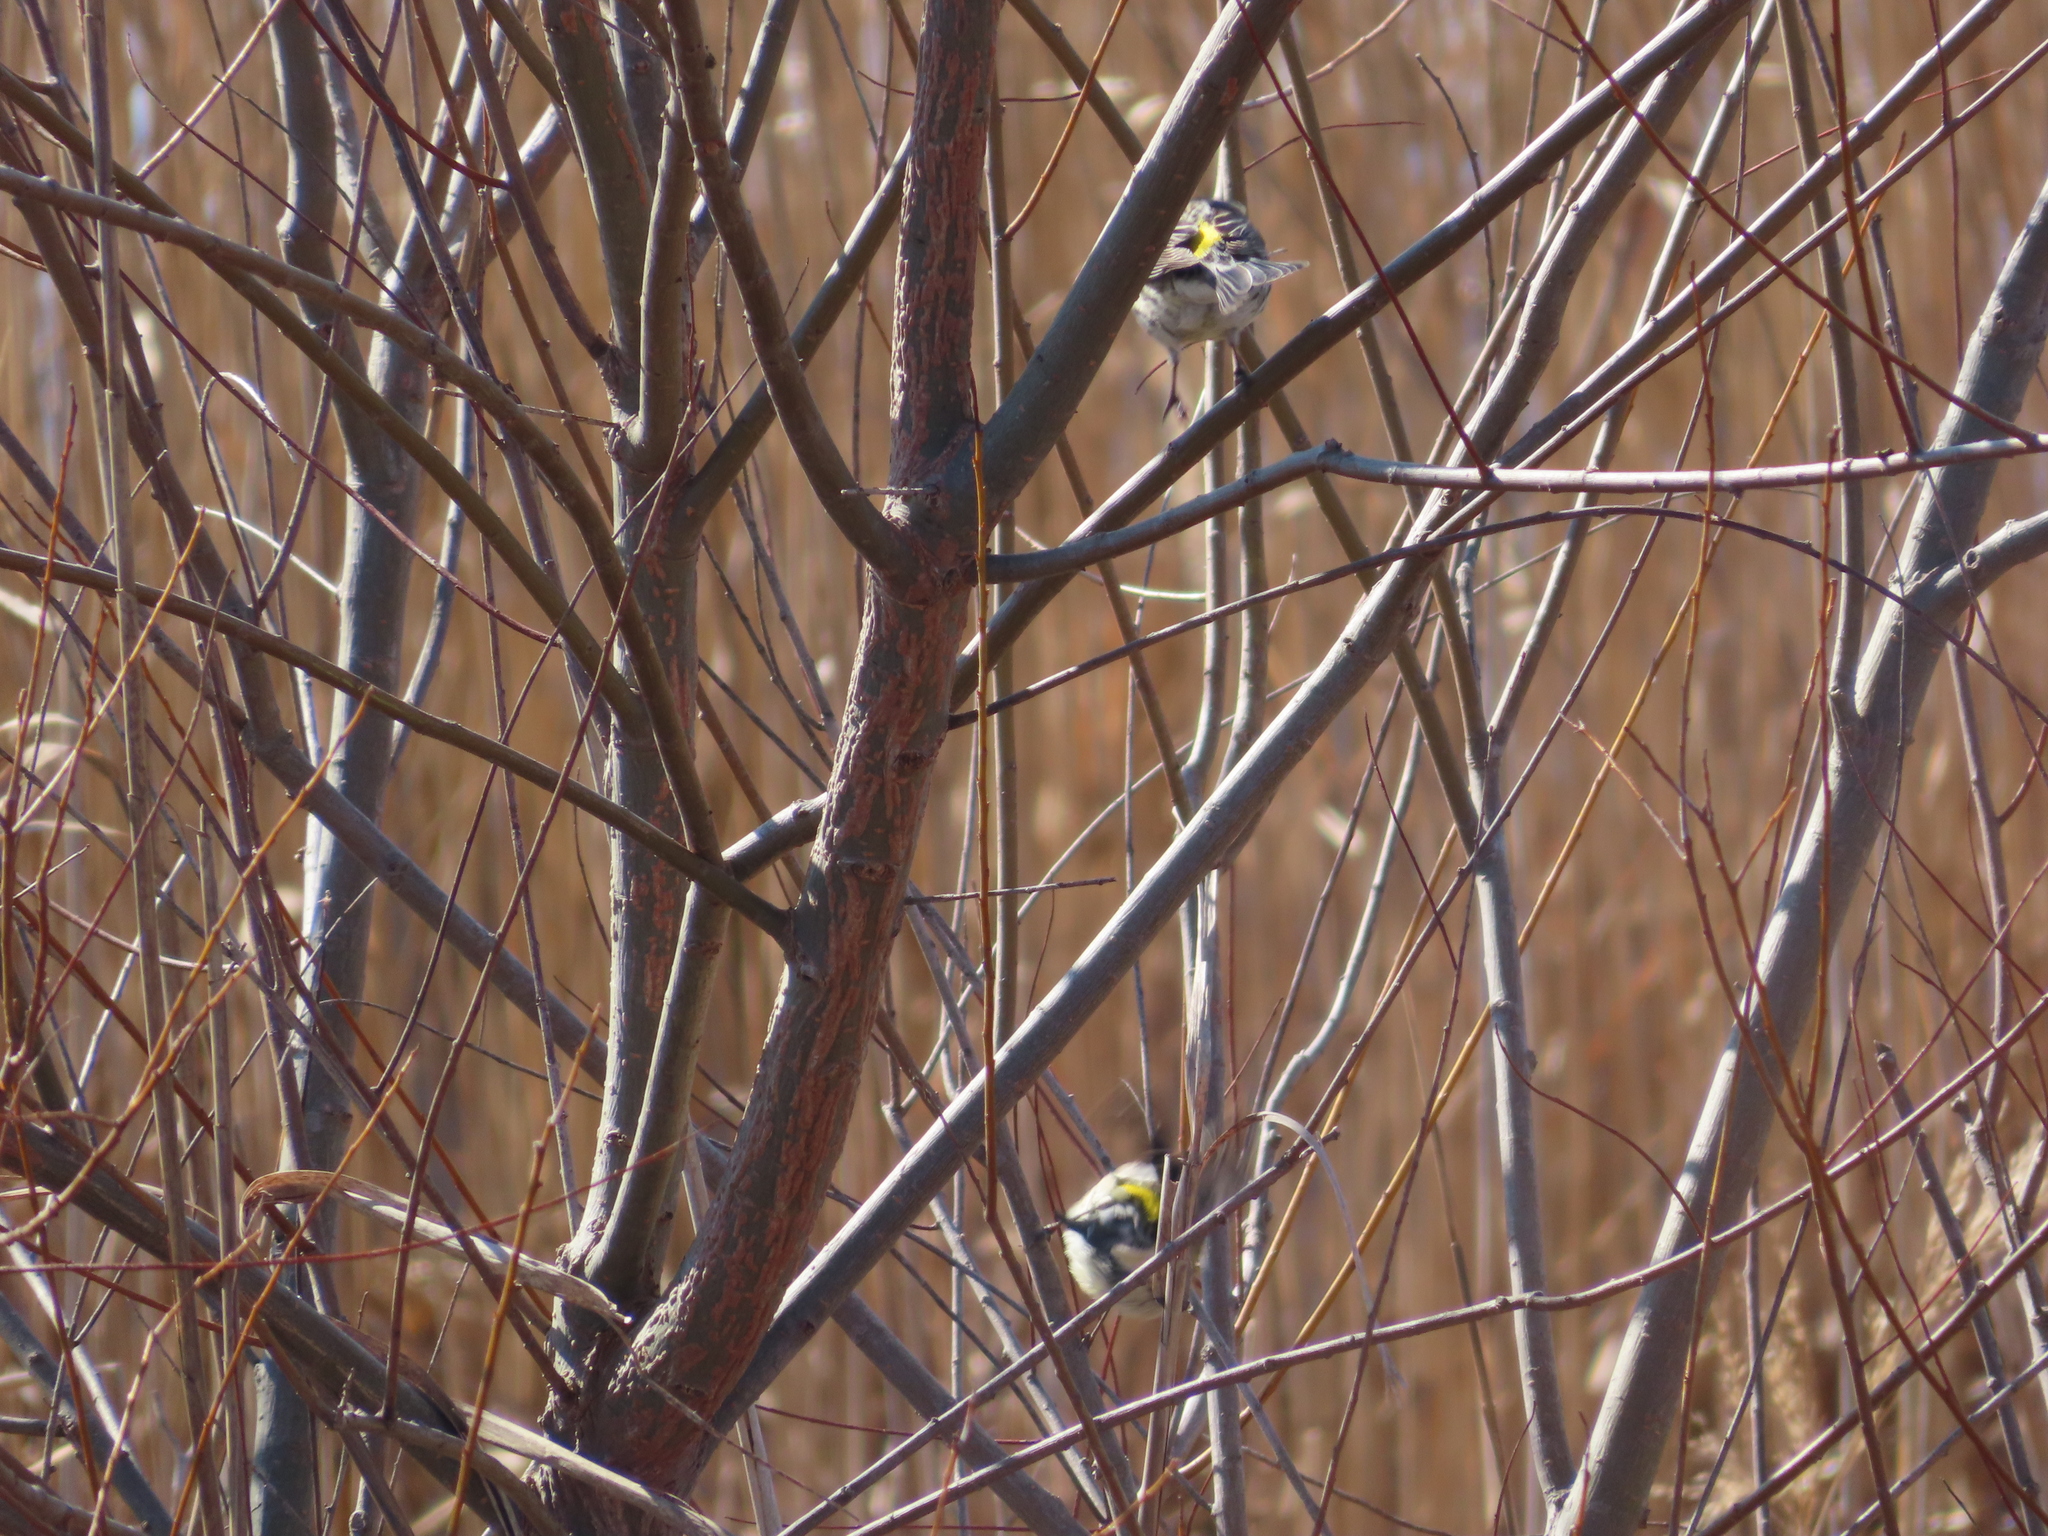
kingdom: Animalia
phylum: Chordata
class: Aves
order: Passeriformes
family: Parulidae
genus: Setophaga
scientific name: Setophaga coronata
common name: Myrtle warbler
